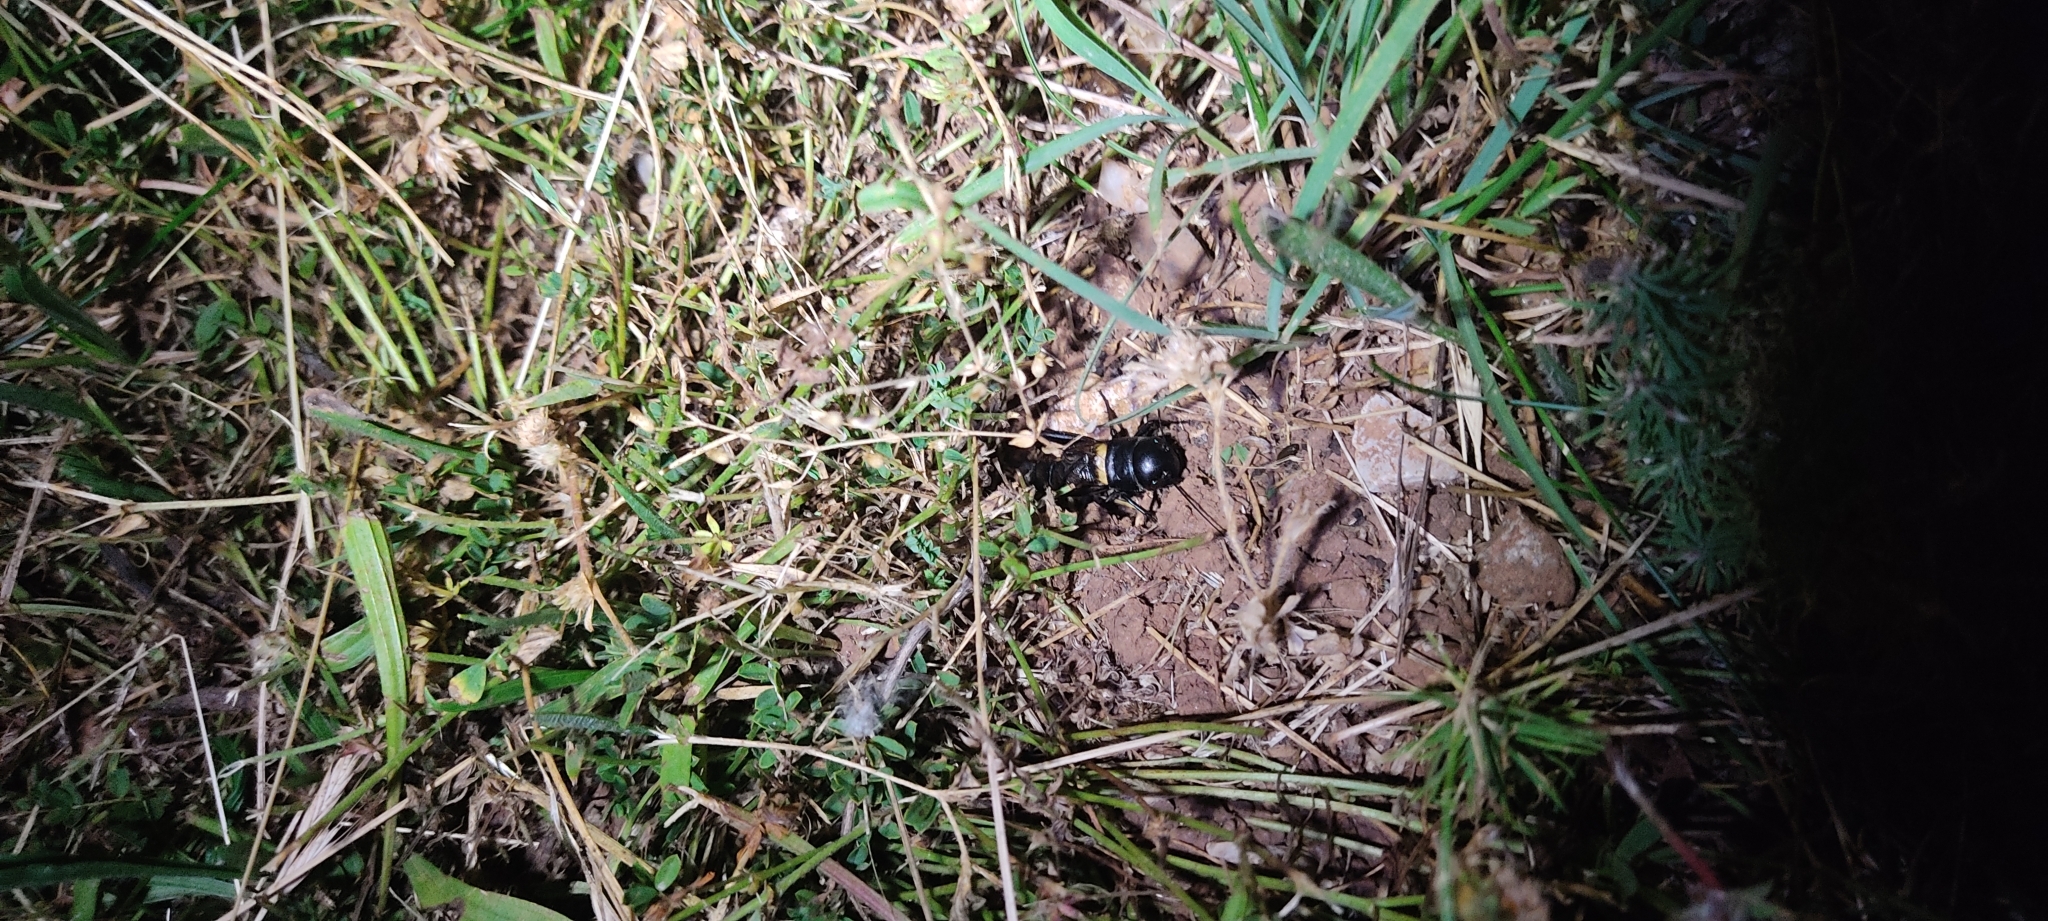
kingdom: Animalia
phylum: Arthropoda
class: Insecta
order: Orthoptera
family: Gryllidae
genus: Gryllus
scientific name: Gryllus campestris
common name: Field cricket
